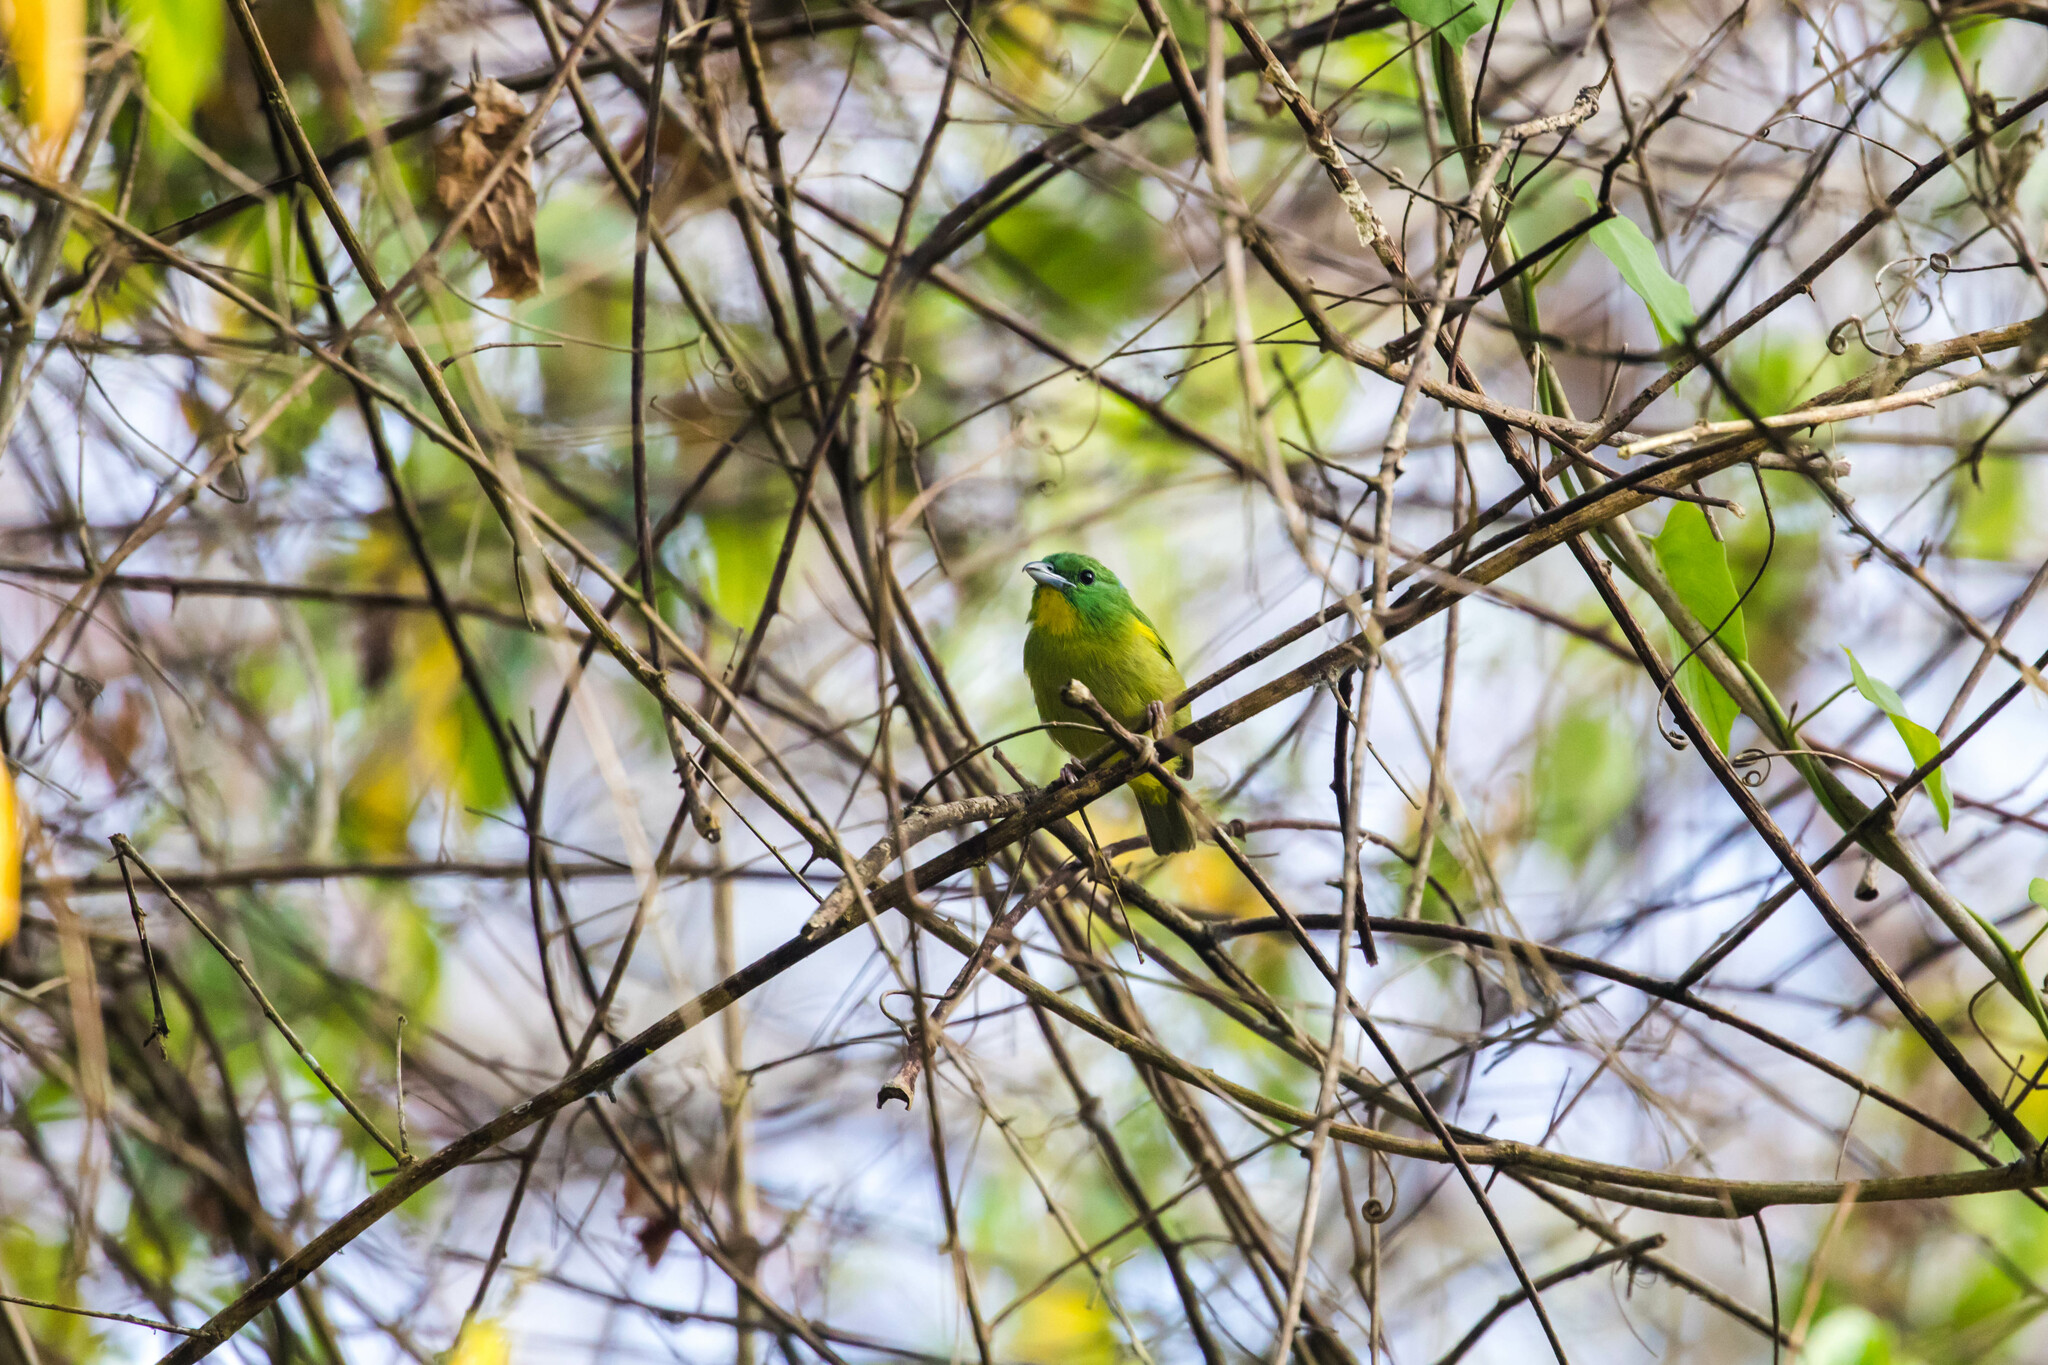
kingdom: Animalia
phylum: Chordata
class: Aves
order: Passeriformes
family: Vireonidae
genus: Vireolanius
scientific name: Vireolanius pulchellus
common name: Green shrike-vireo
